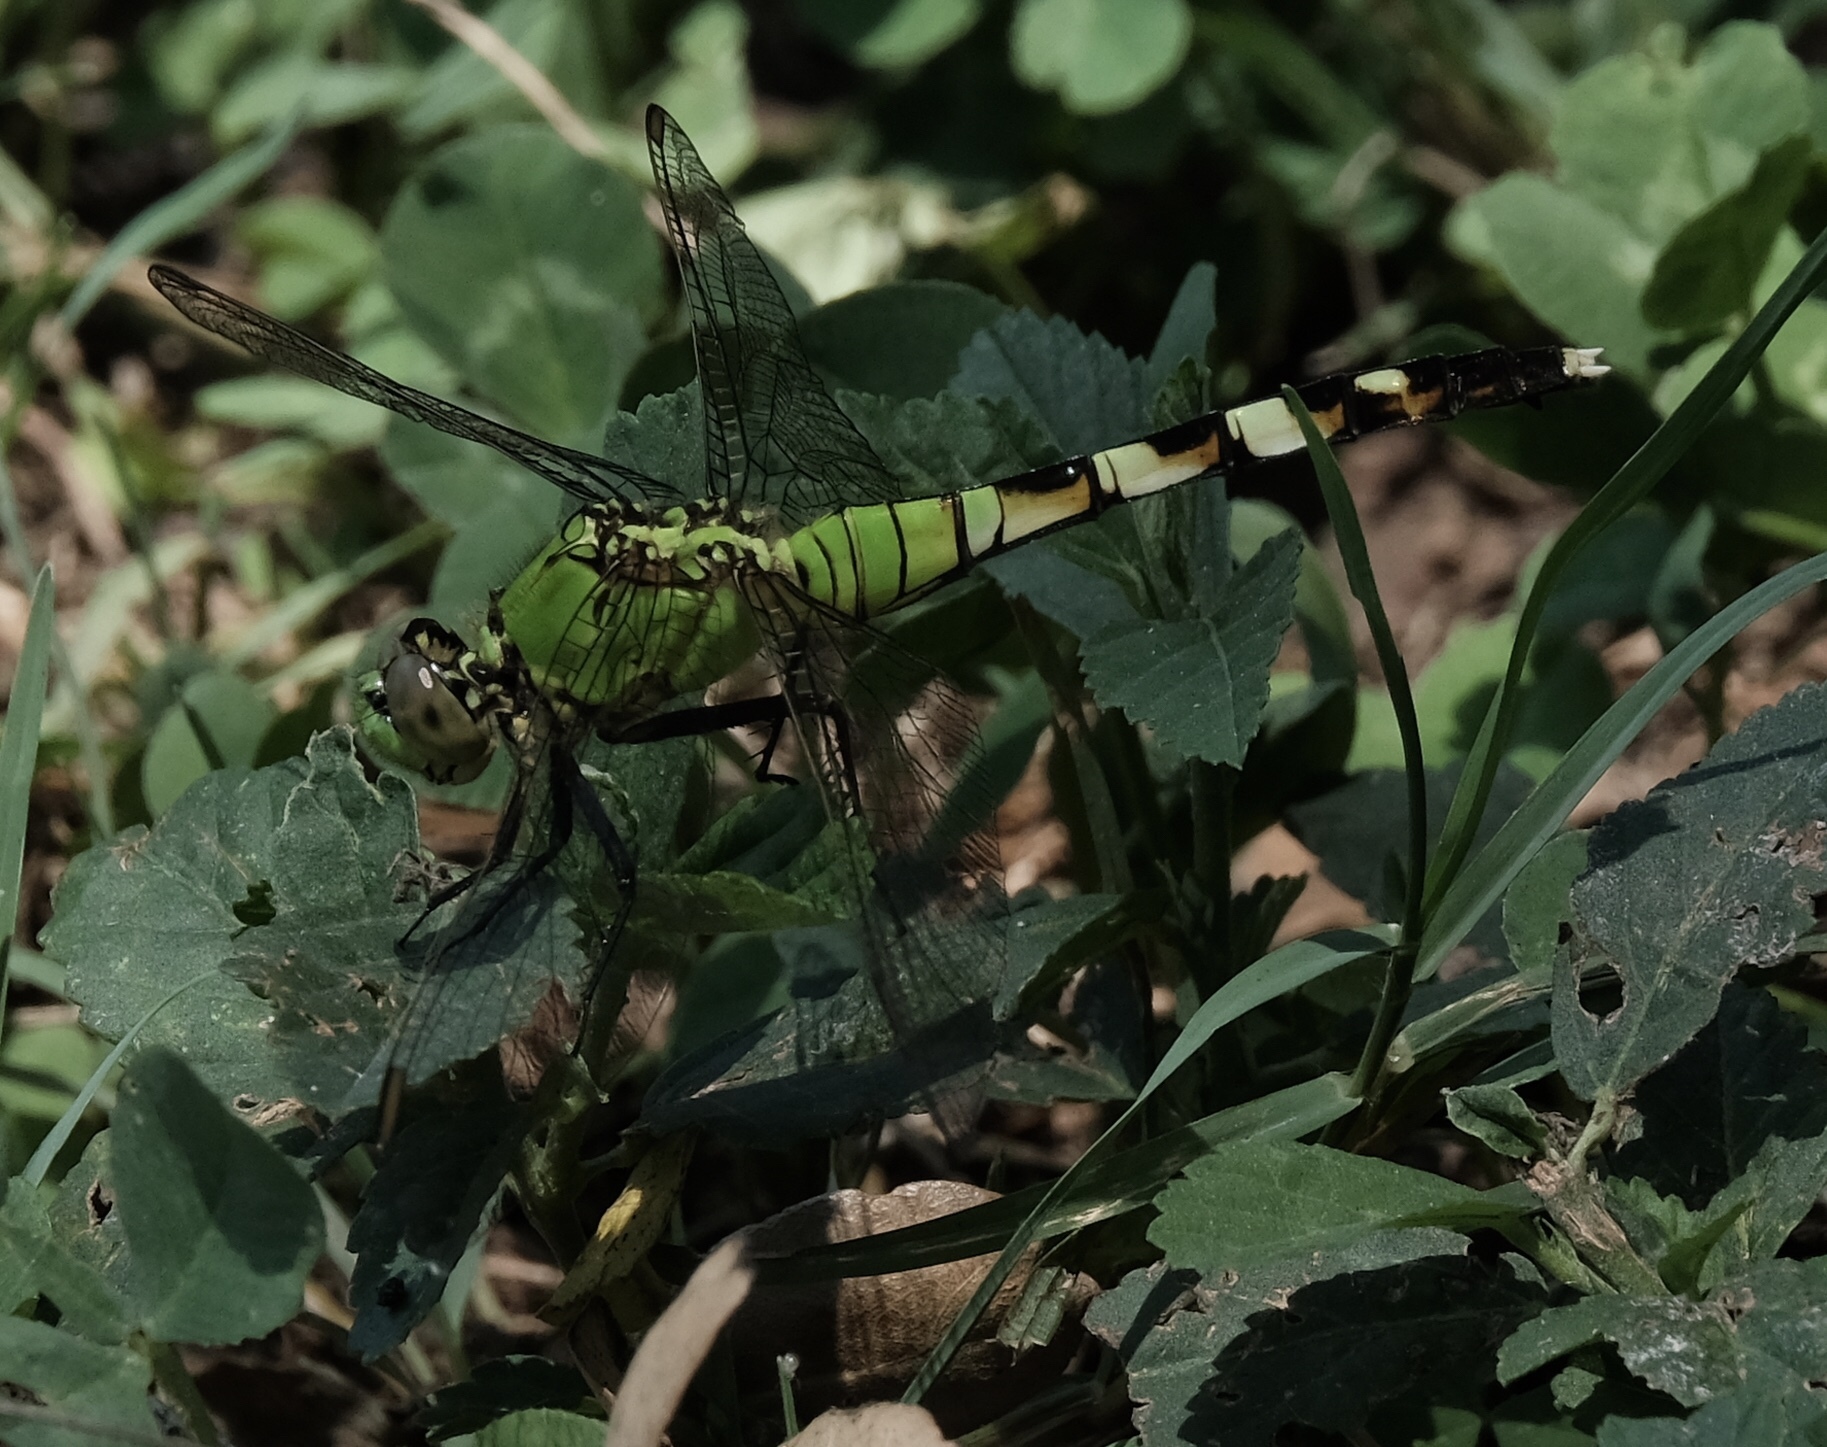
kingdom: Animalia
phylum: Arthropoda
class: Insecta
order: Odonata
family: Libellulidae
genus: Erythemis
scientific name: Erythemis simplicicollis
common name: Eastern pondhawk
